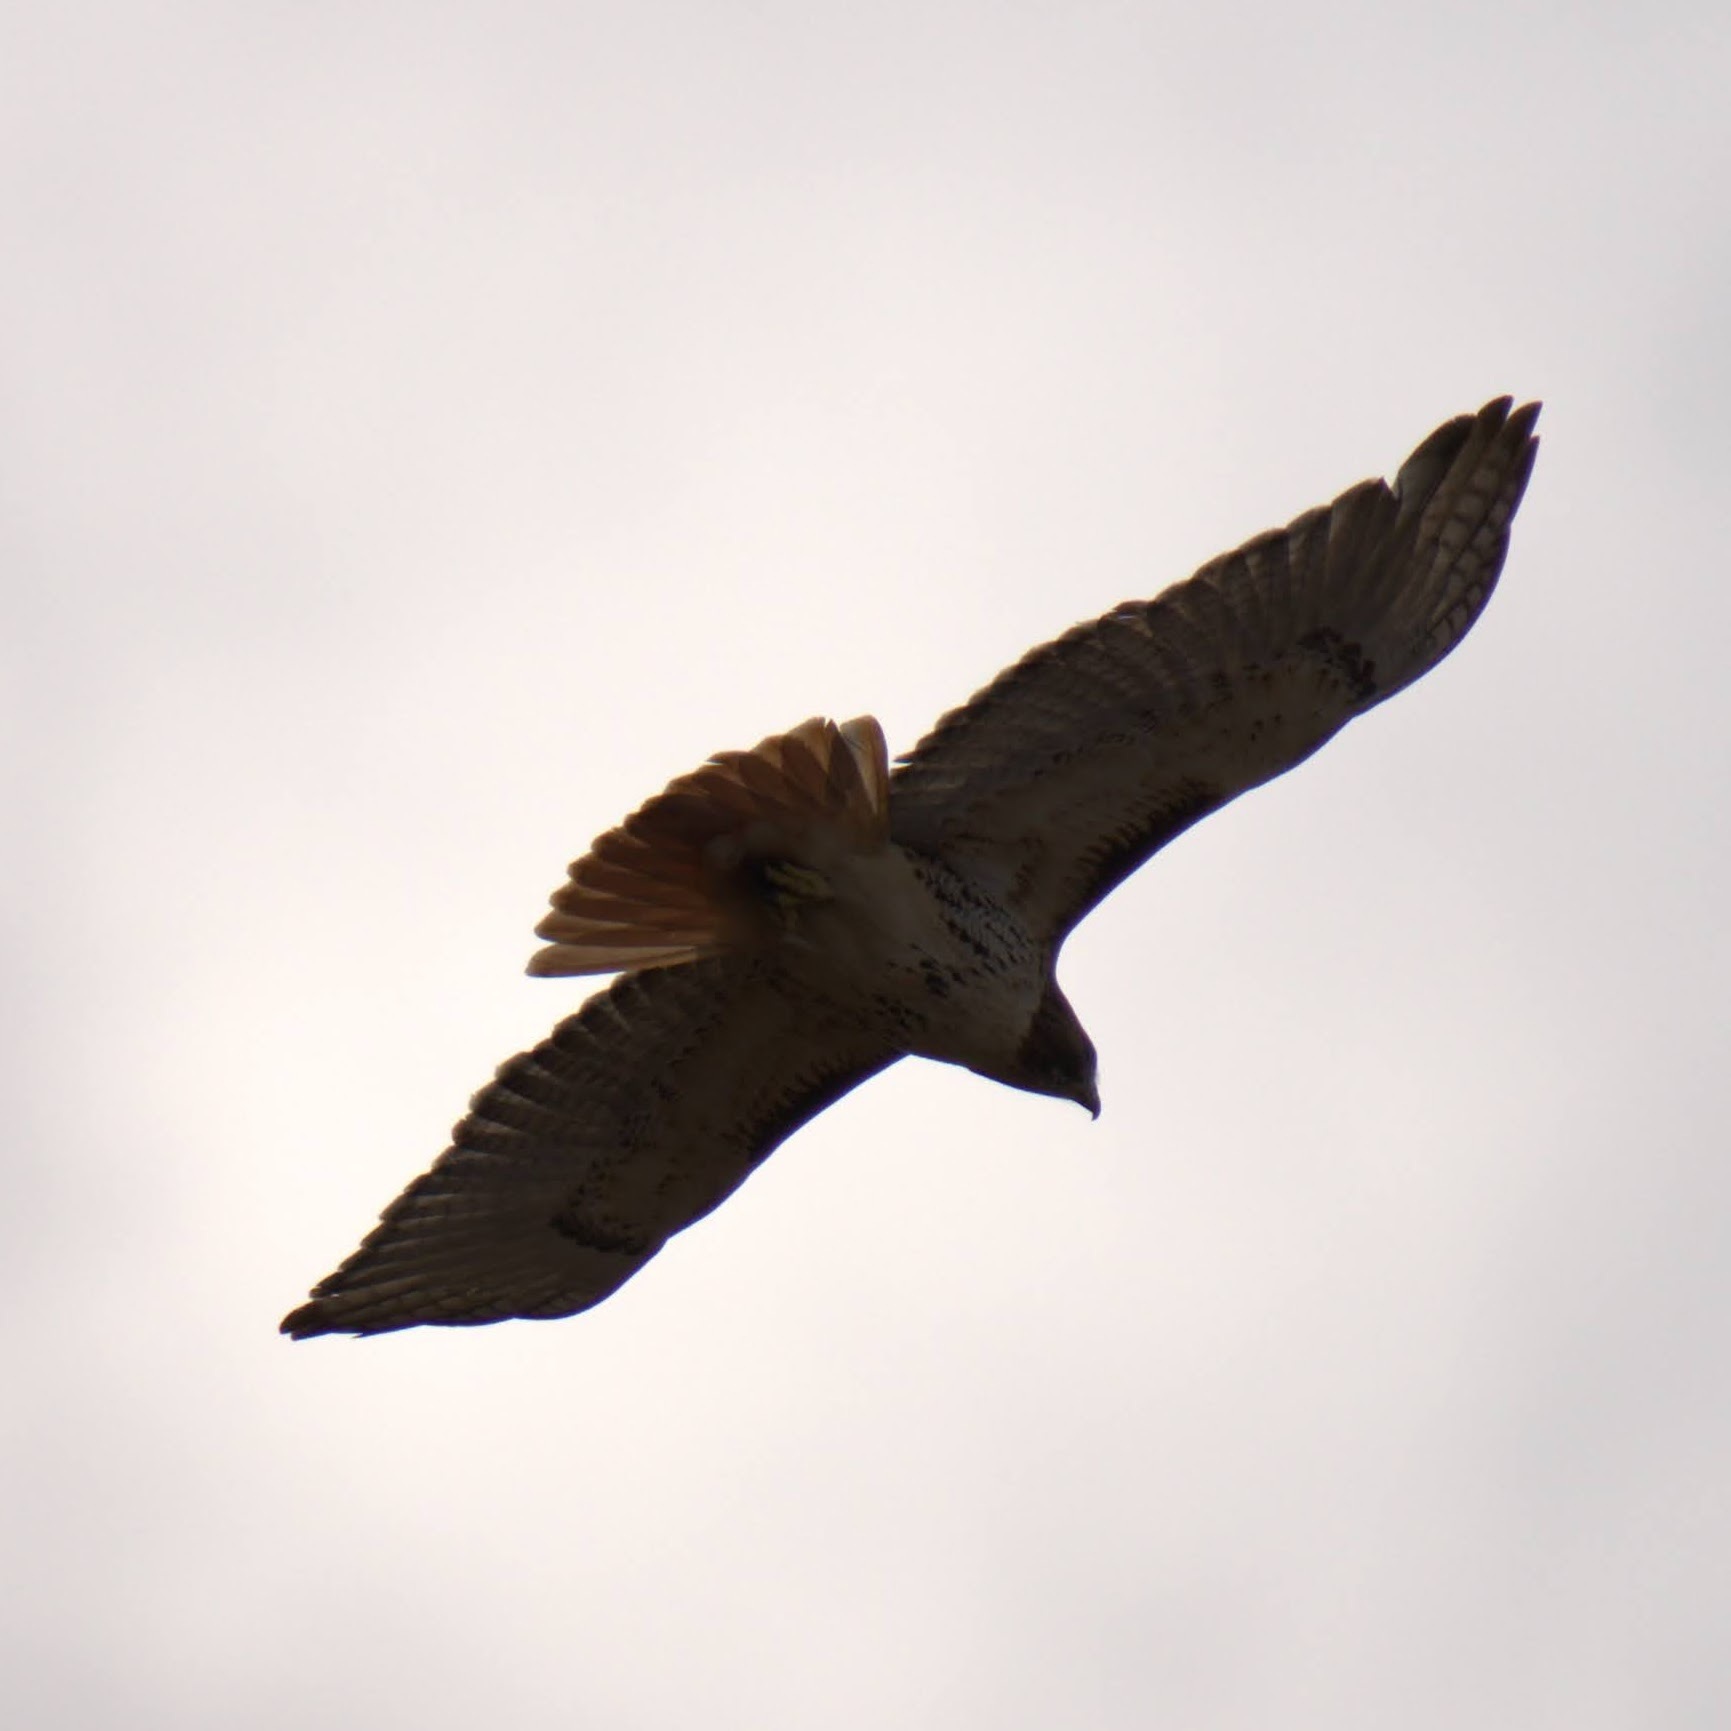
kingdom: Animalia
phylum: Chordata
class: Aves
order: Accipitriformes
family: Accipitridae
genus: Buteo
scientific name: Buteo jamaicensis
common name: Red-tailed hawk
